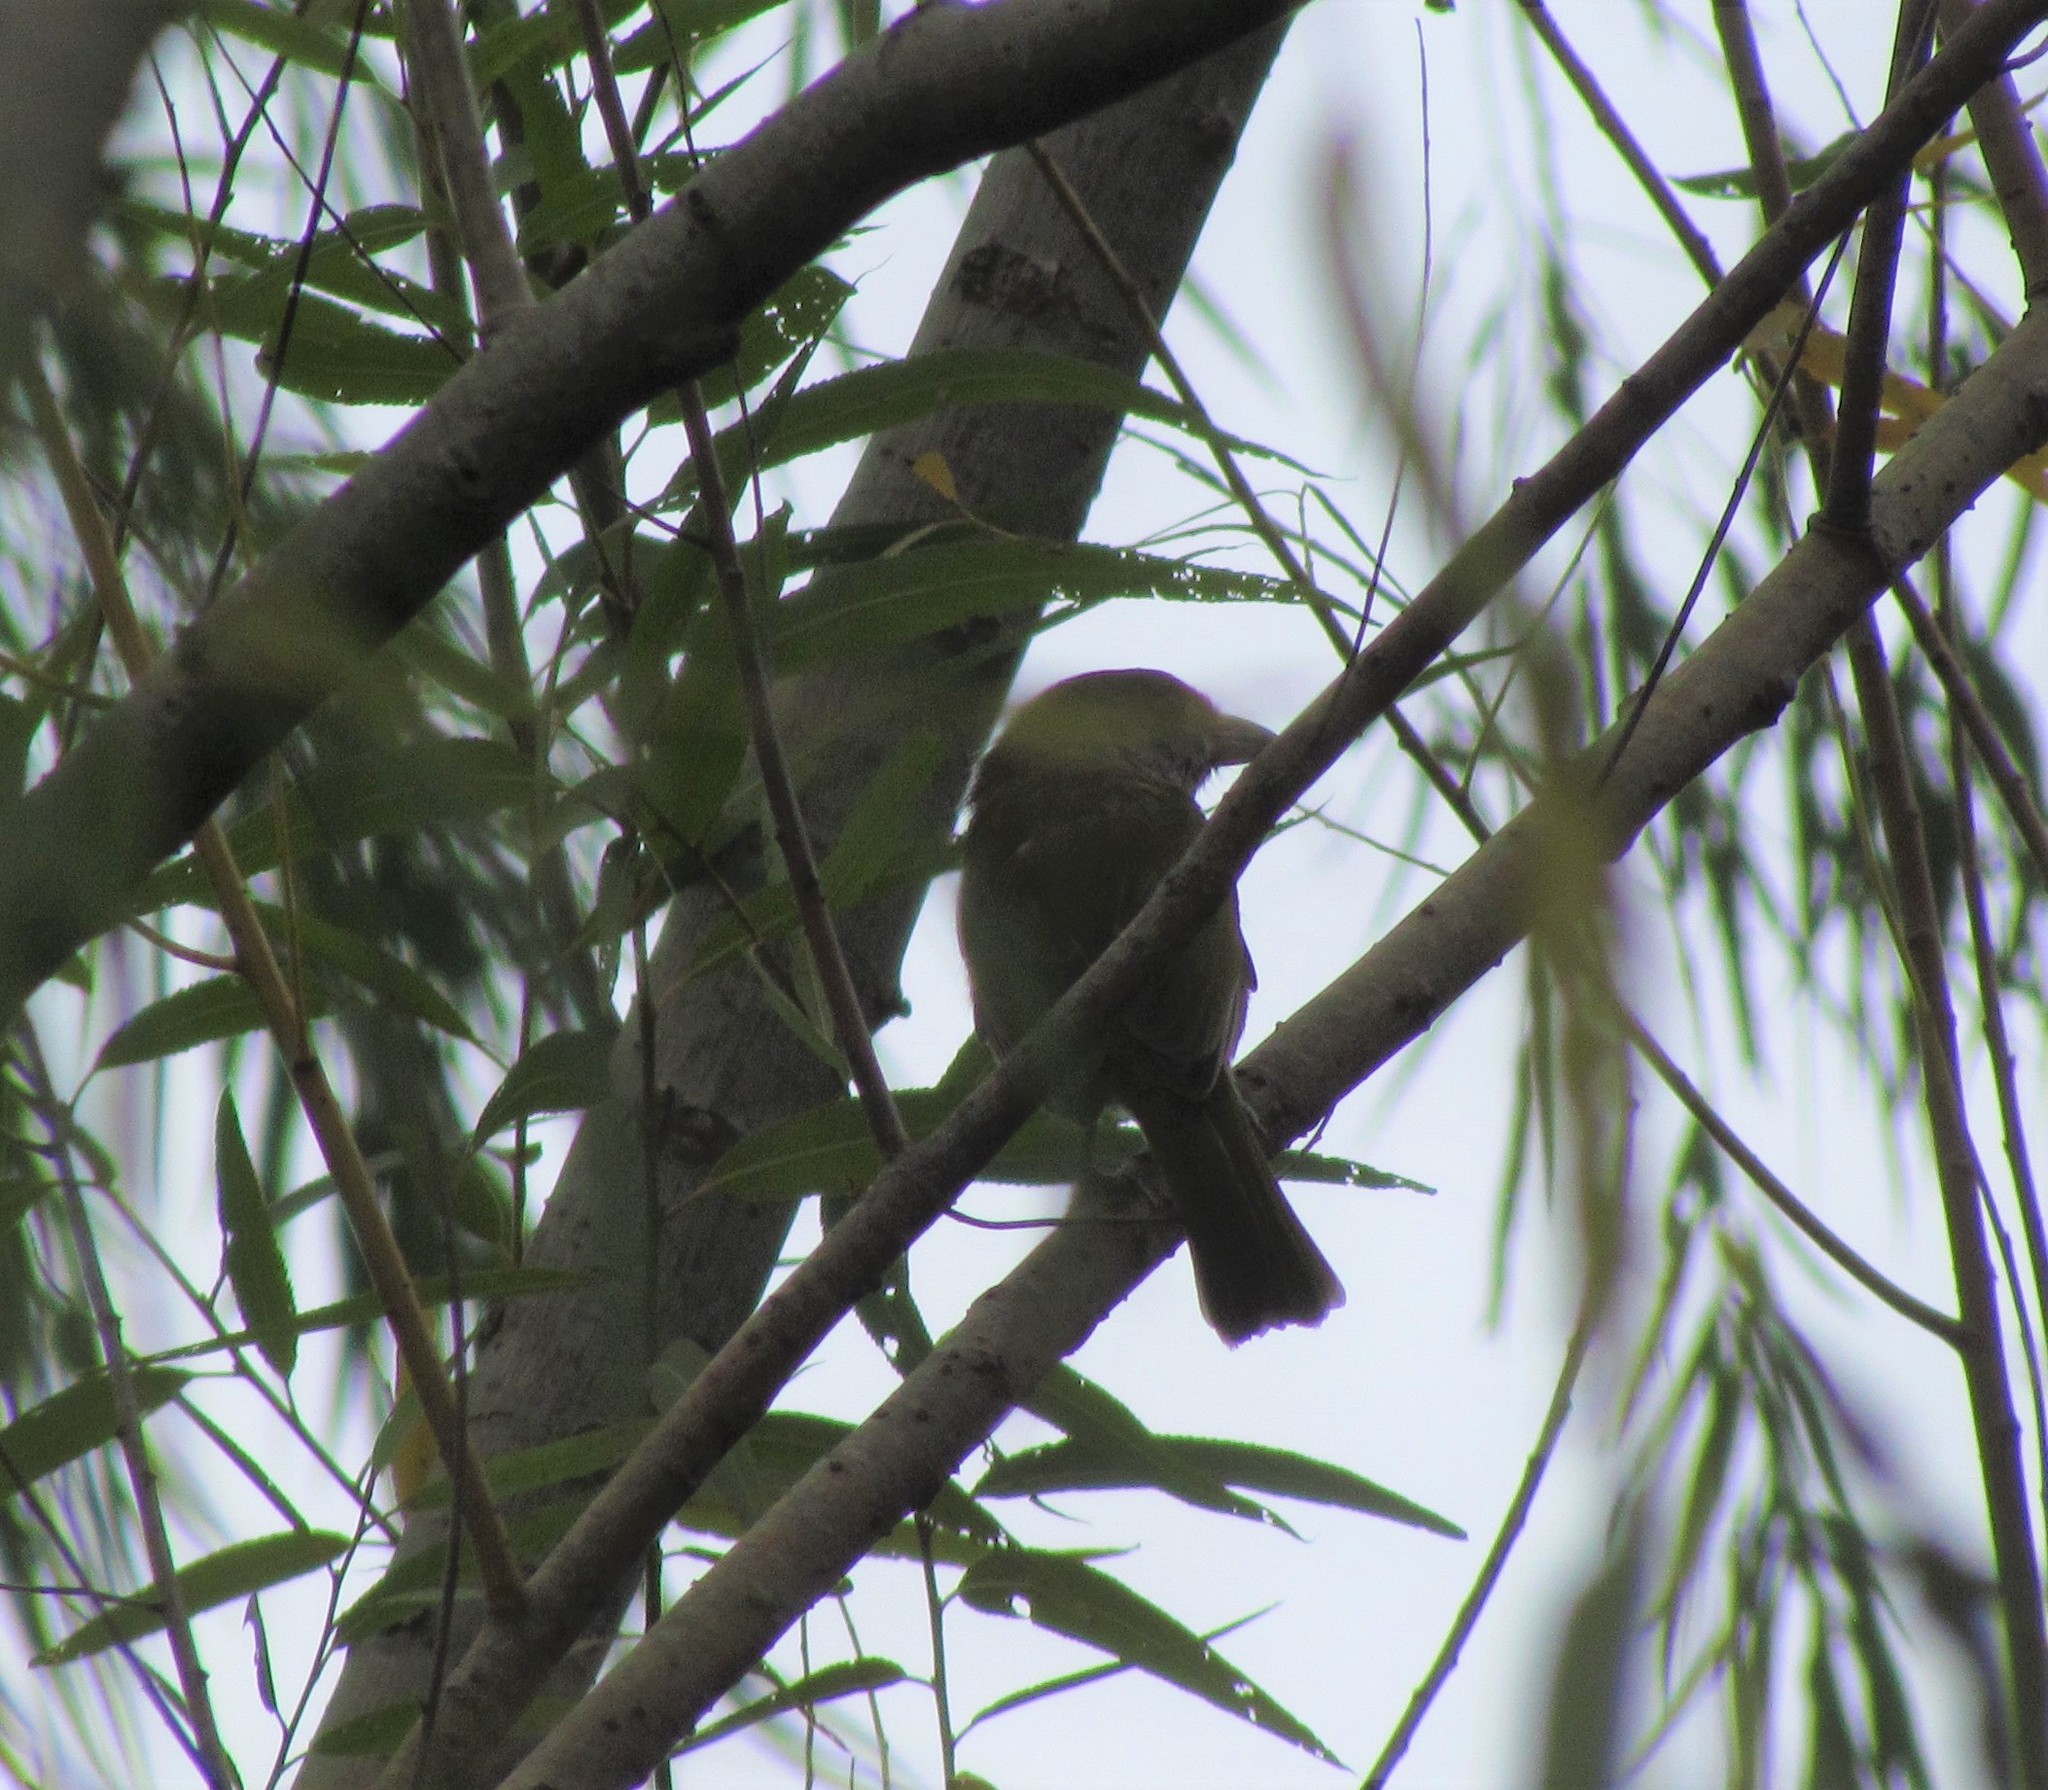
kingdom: Animalia
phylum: Chordata
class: Aves
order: Passeriformes
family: Vireonidae
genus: Cyclarhis
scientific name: Cyclarhis gujanensis
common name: Rufous-browed peppershrike
